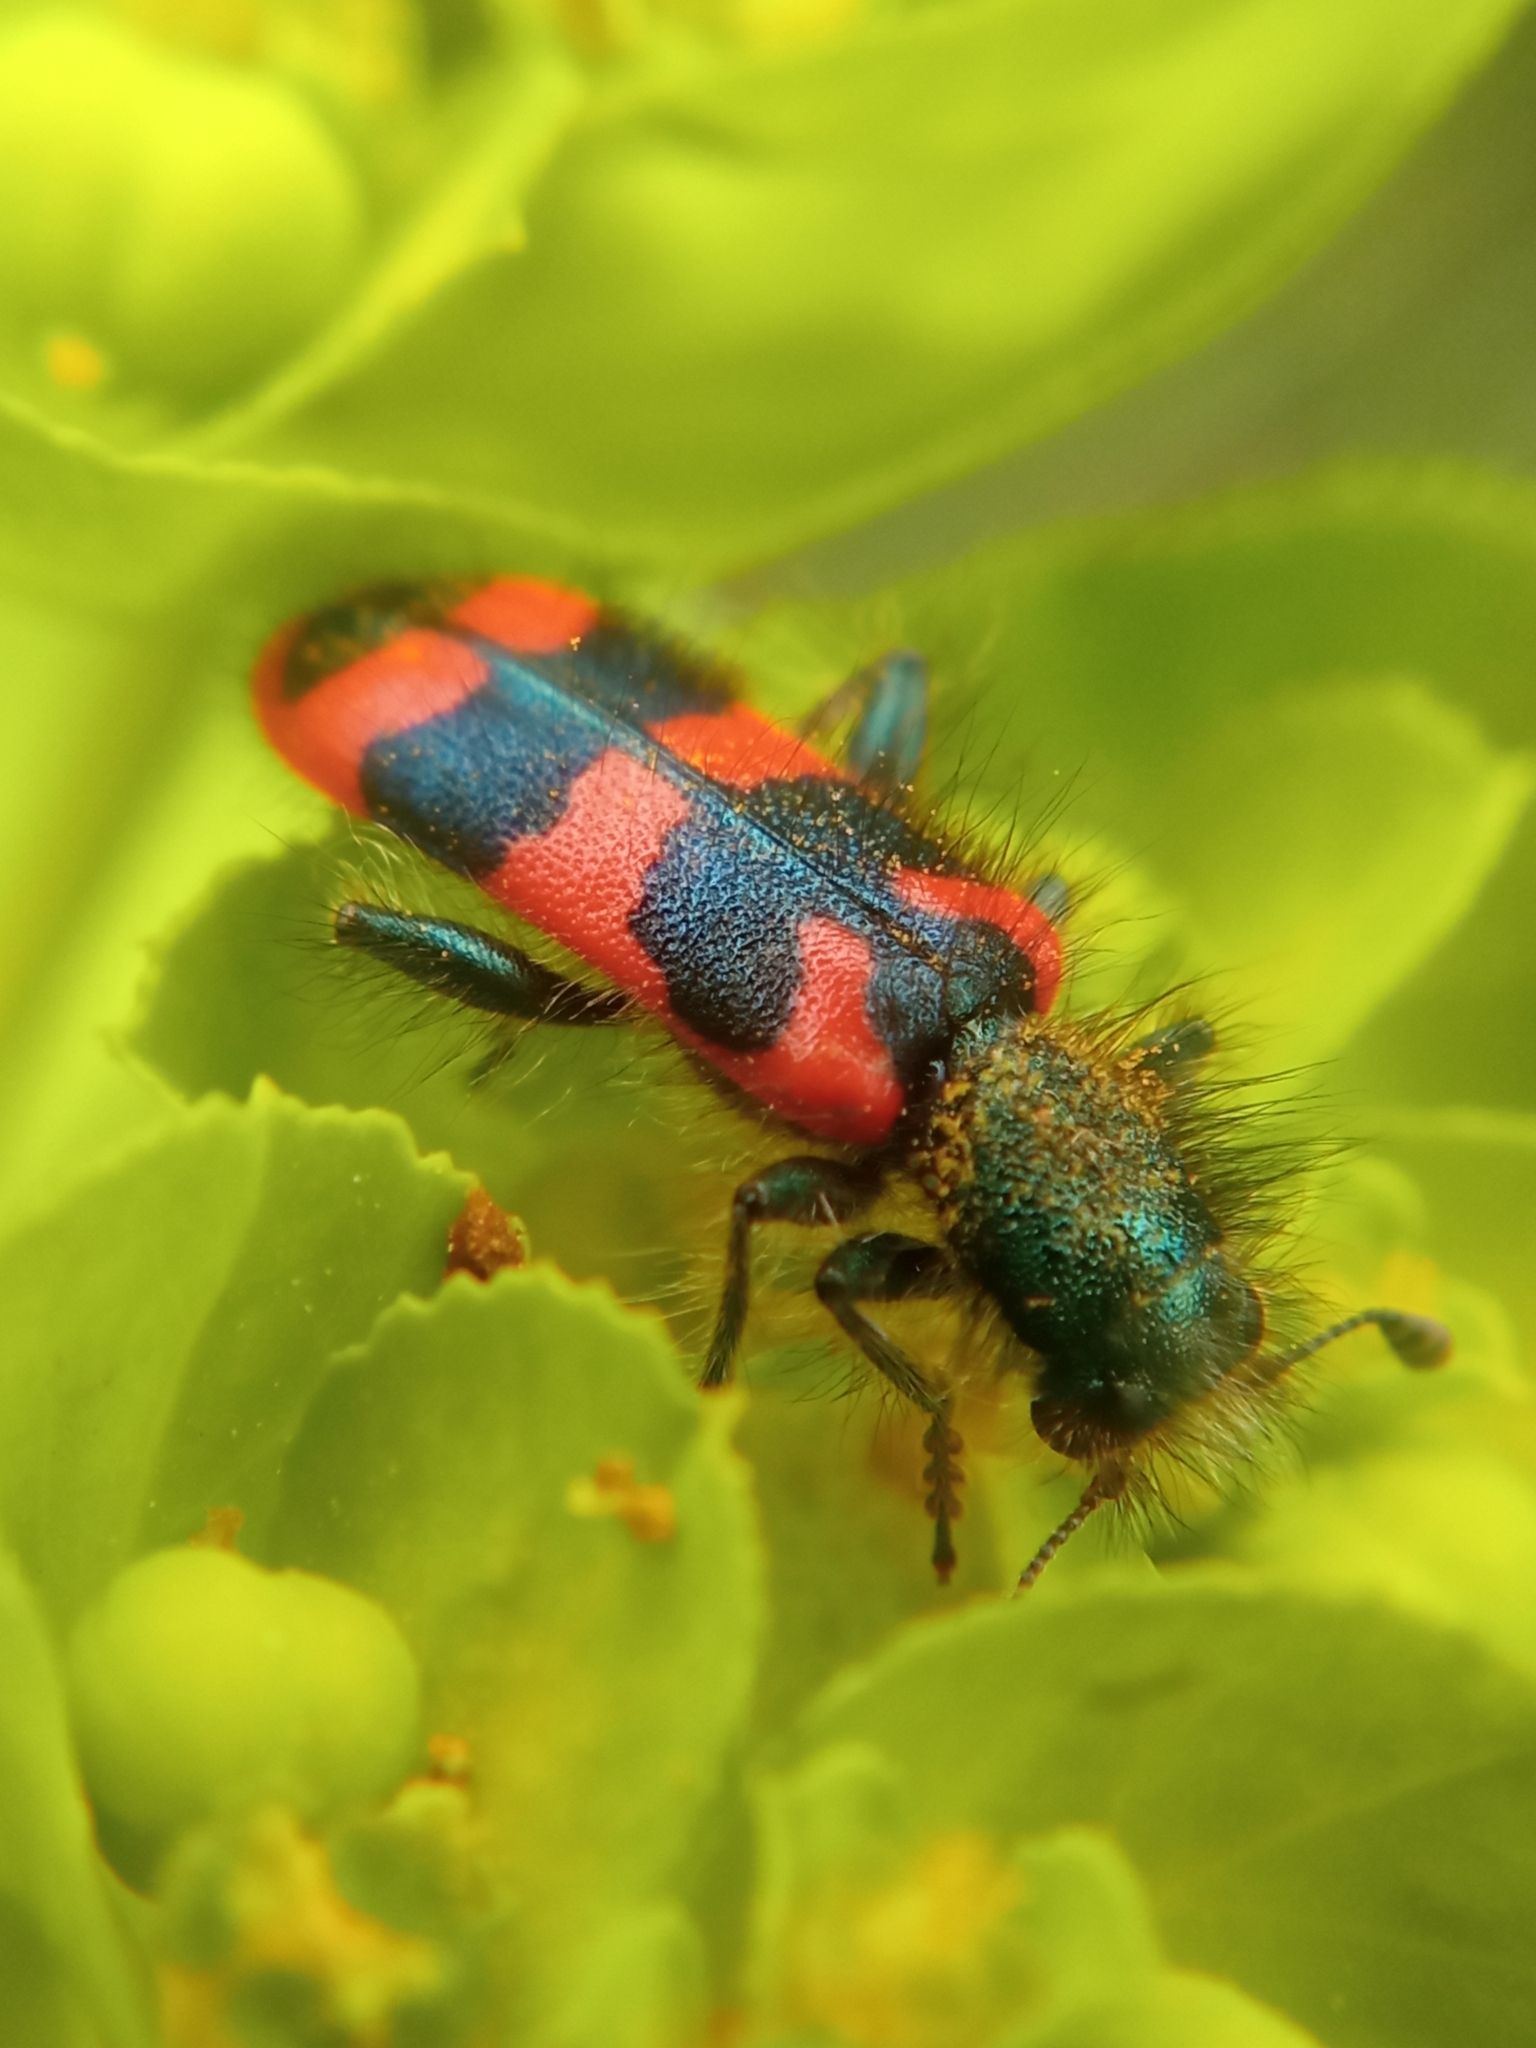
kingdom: Animalia
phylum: Arthropoda
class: Insecta
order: Coleoptera
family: Cleridae
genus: Trichodes
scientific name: Trichodes alvearius
